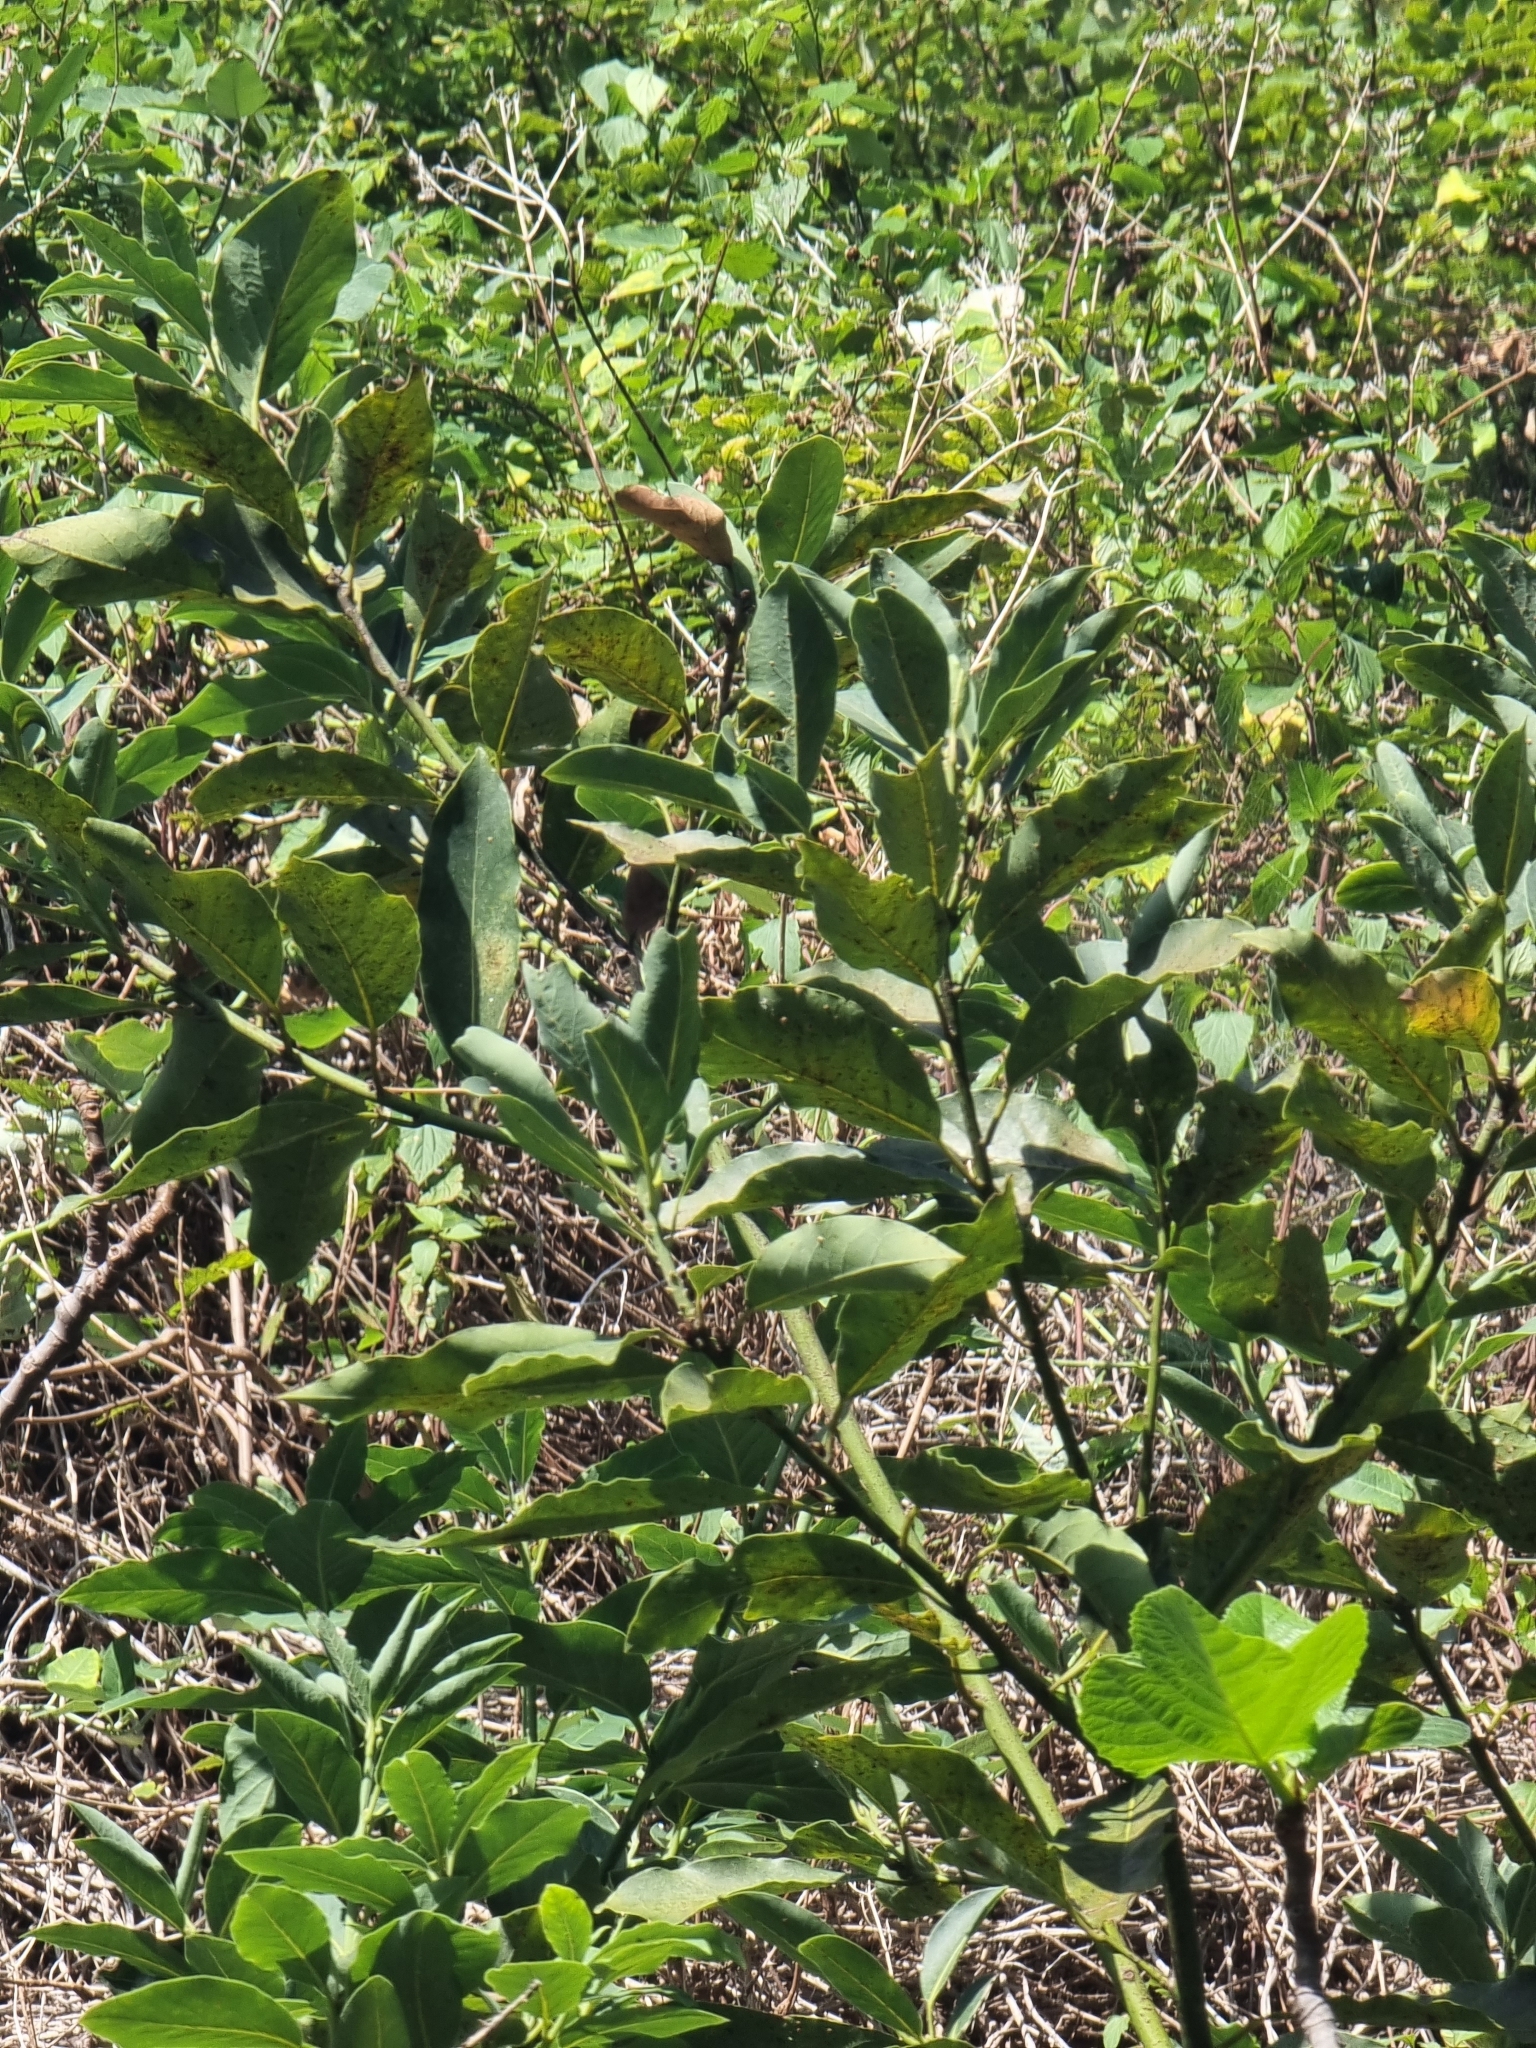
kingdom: Plantae
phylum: Tracheophyta
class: Magnoliopsida
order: Laurales
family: Lauraceae
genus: Laurus
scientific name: Laurus novocanariensis
